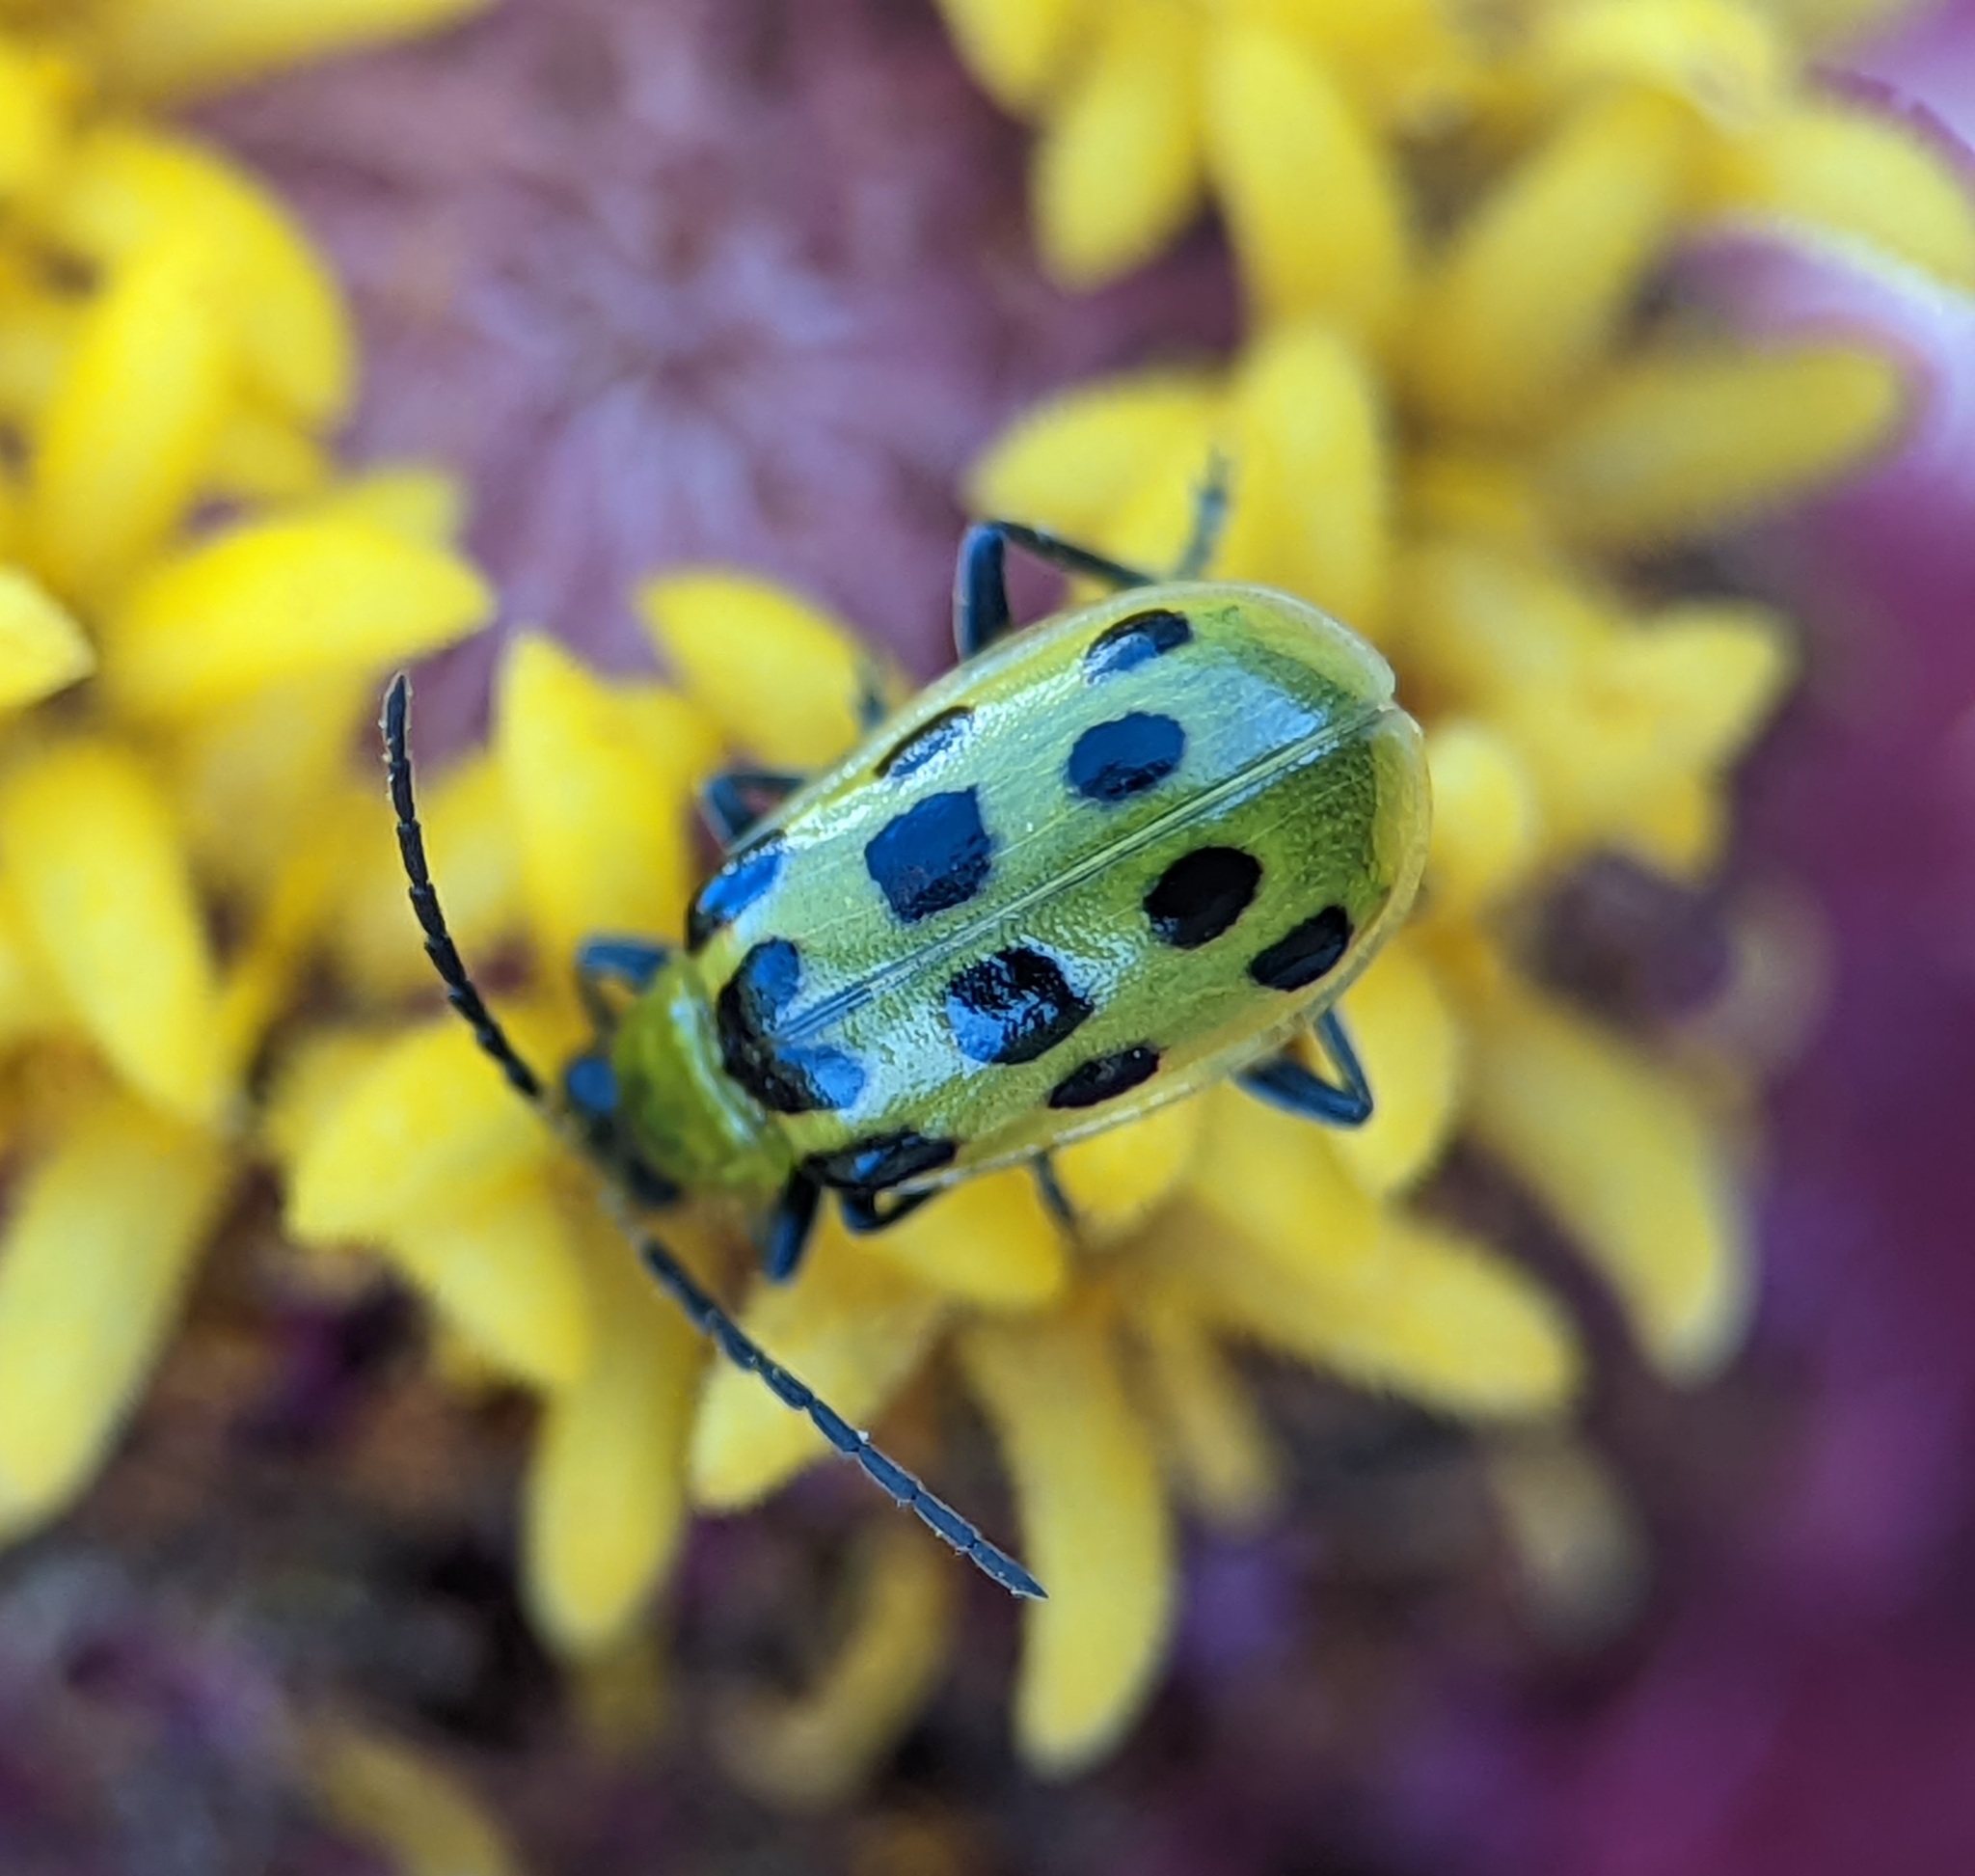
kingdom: Animalia
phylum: Arthropoda
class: Insecta
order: Coleoptera
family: Chrysomelidae
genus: Diabrotica
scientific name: Diabrotica undecimpunctata
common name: Spotted cucumber beetle
